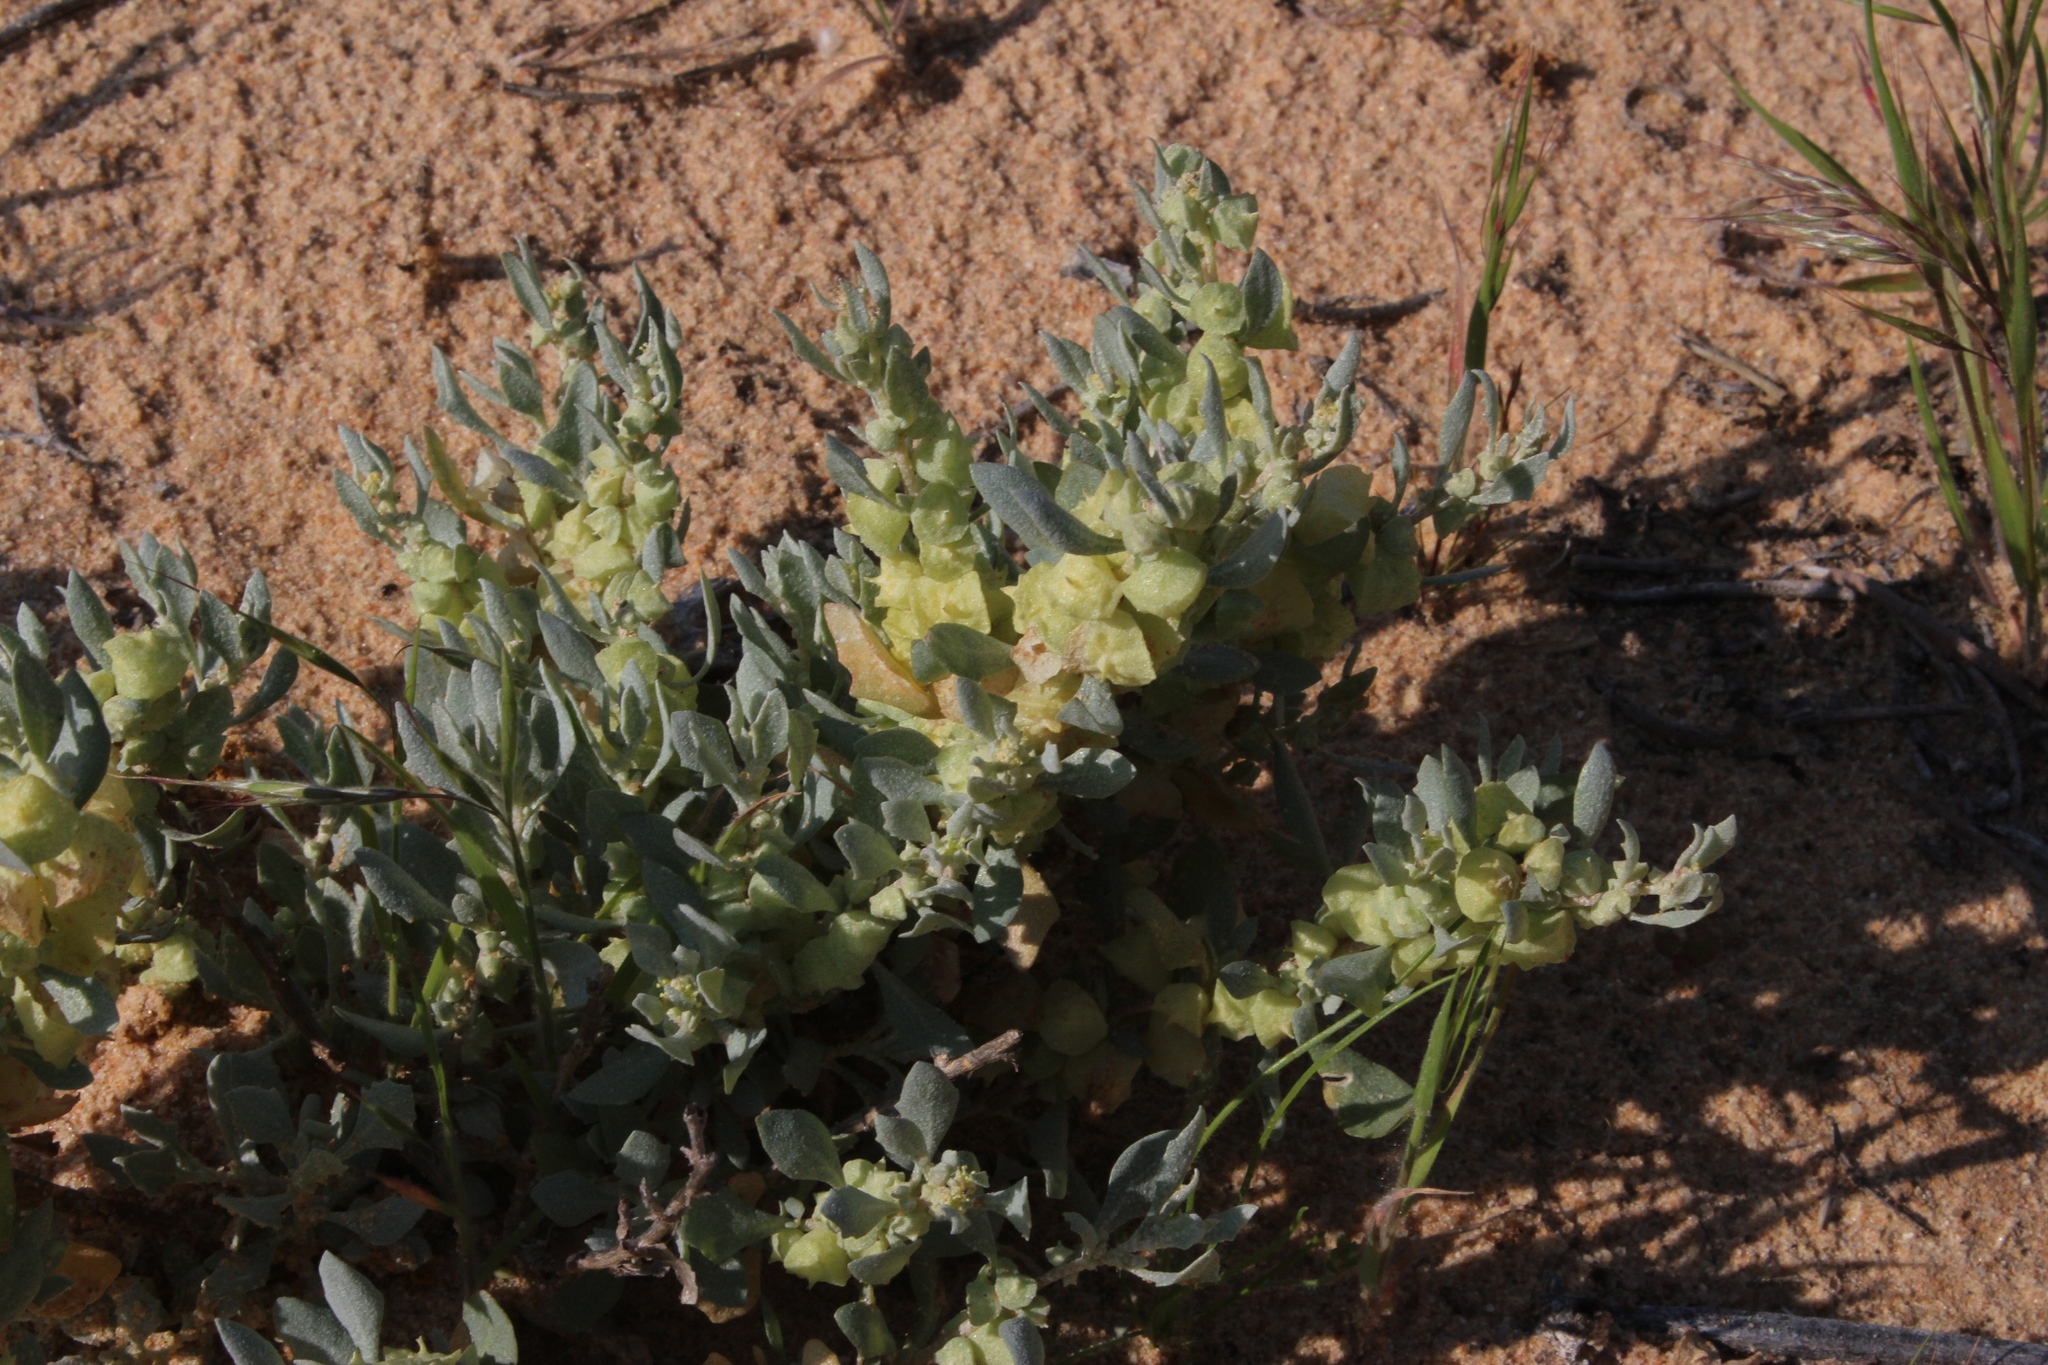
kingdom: Plantae
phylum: Tracheophyta
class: Magnoliopsida
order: Caryophyllales
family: Amaranthaceae
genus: Atriplex
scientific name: Atriplex lindleyi
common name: Lindley's saltbush
